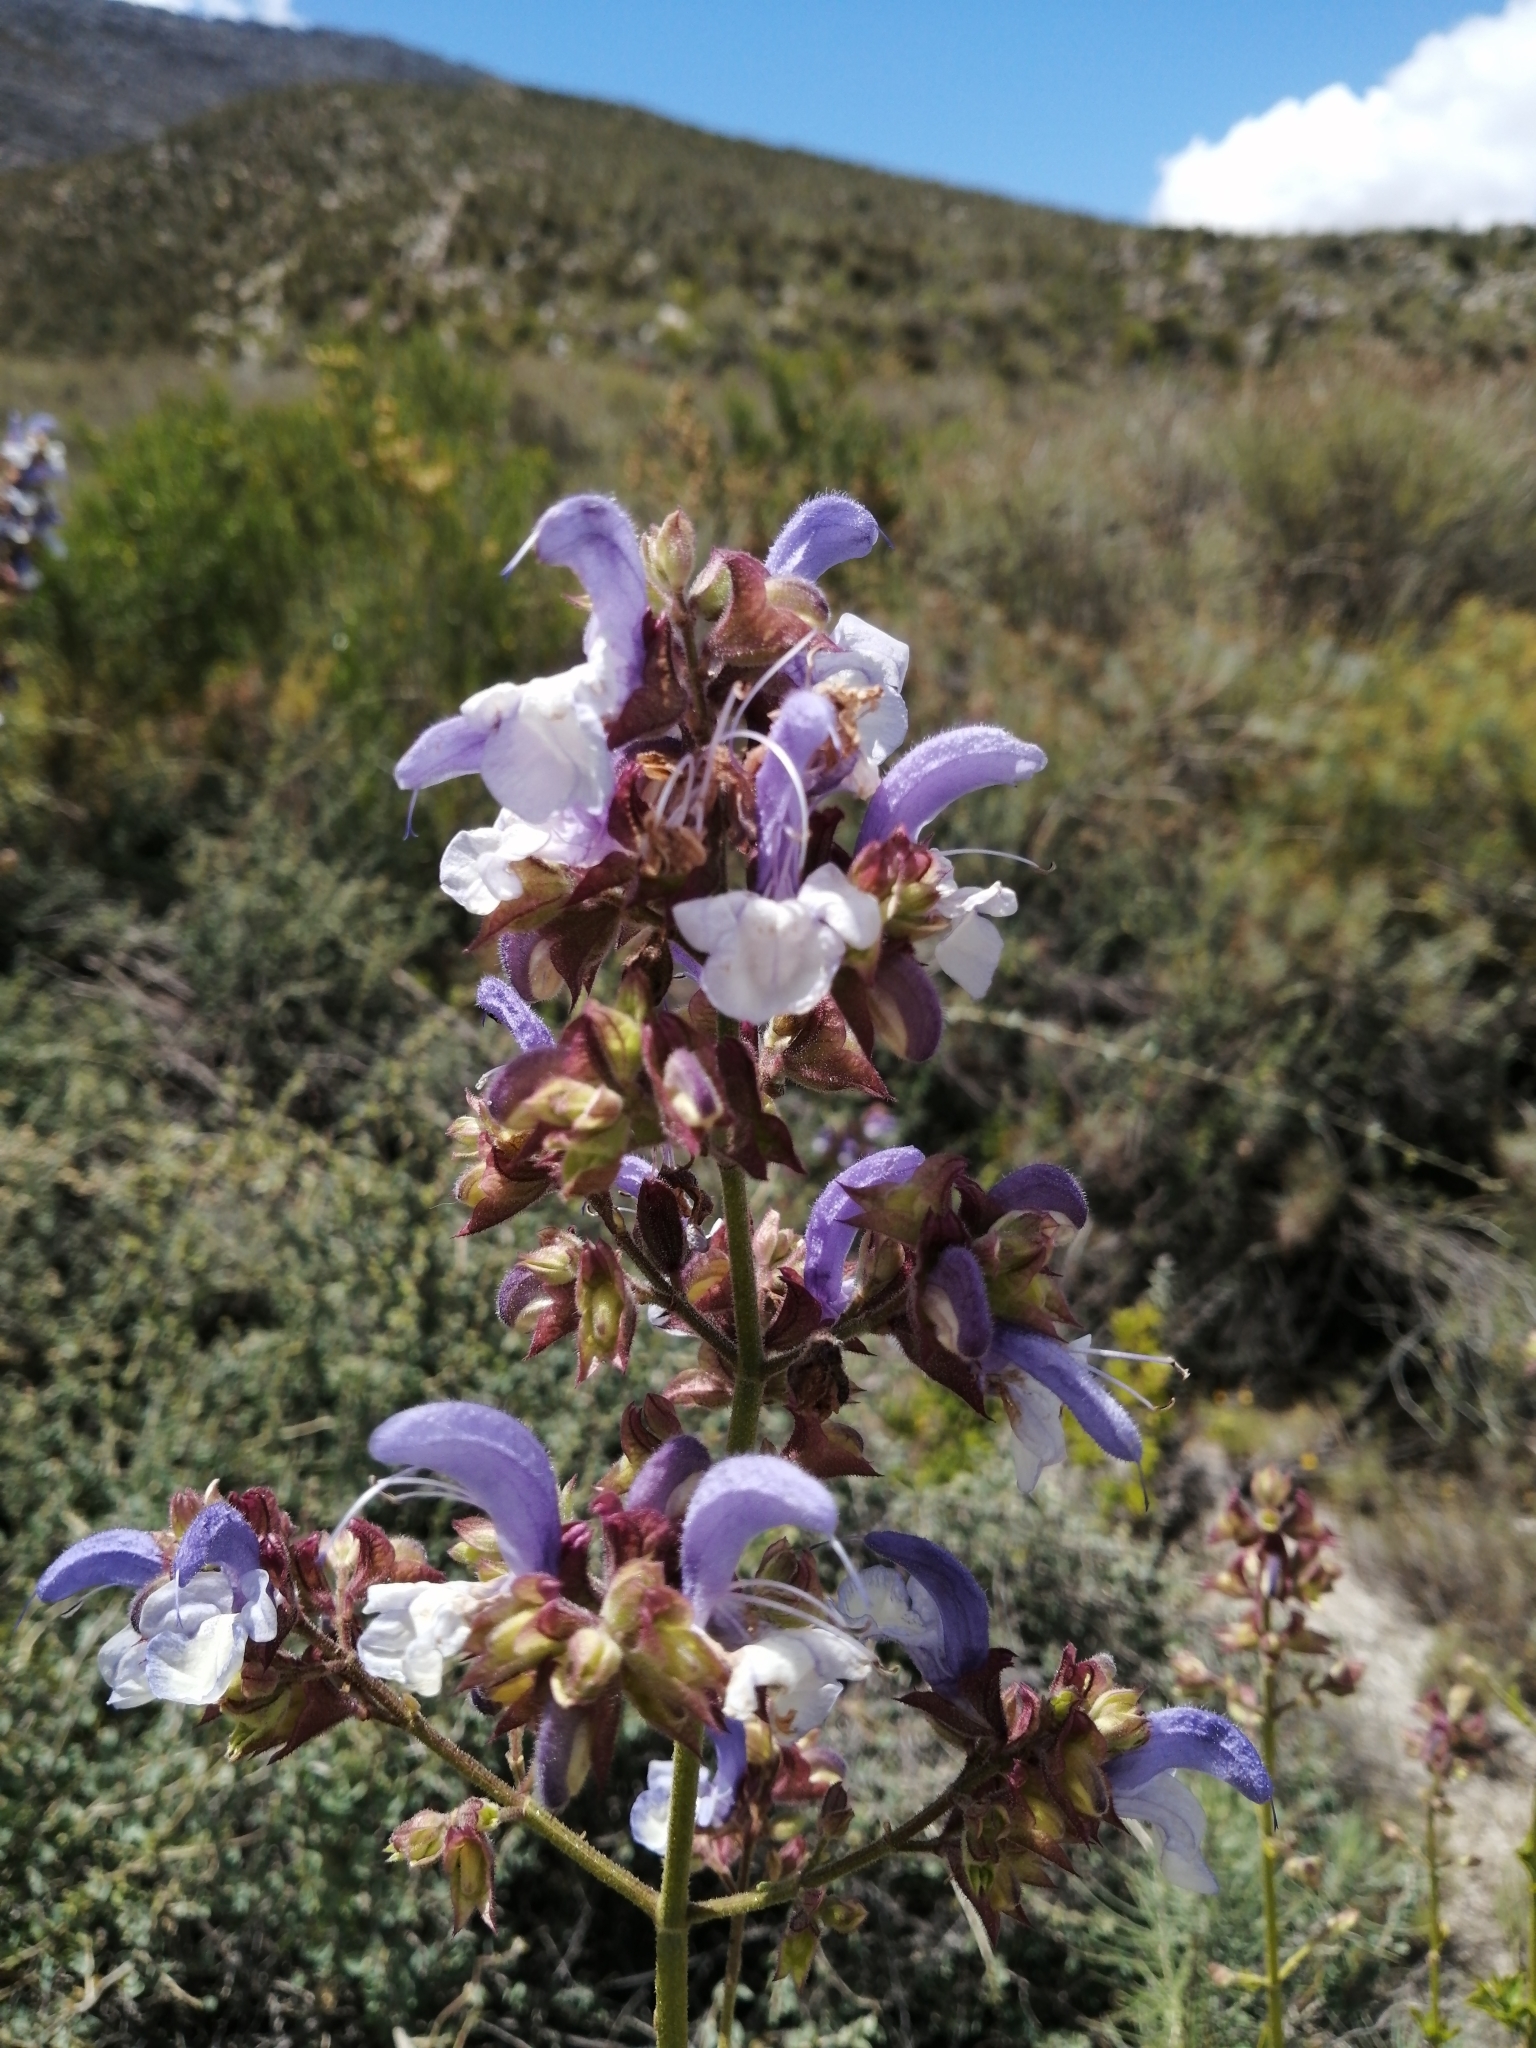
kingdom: Plantae
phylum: Tracheophyta
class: Magnoliopsida
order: Lamiales
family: Lamiaceae
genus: Salvia
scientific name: Salvia chamelaeagnea
